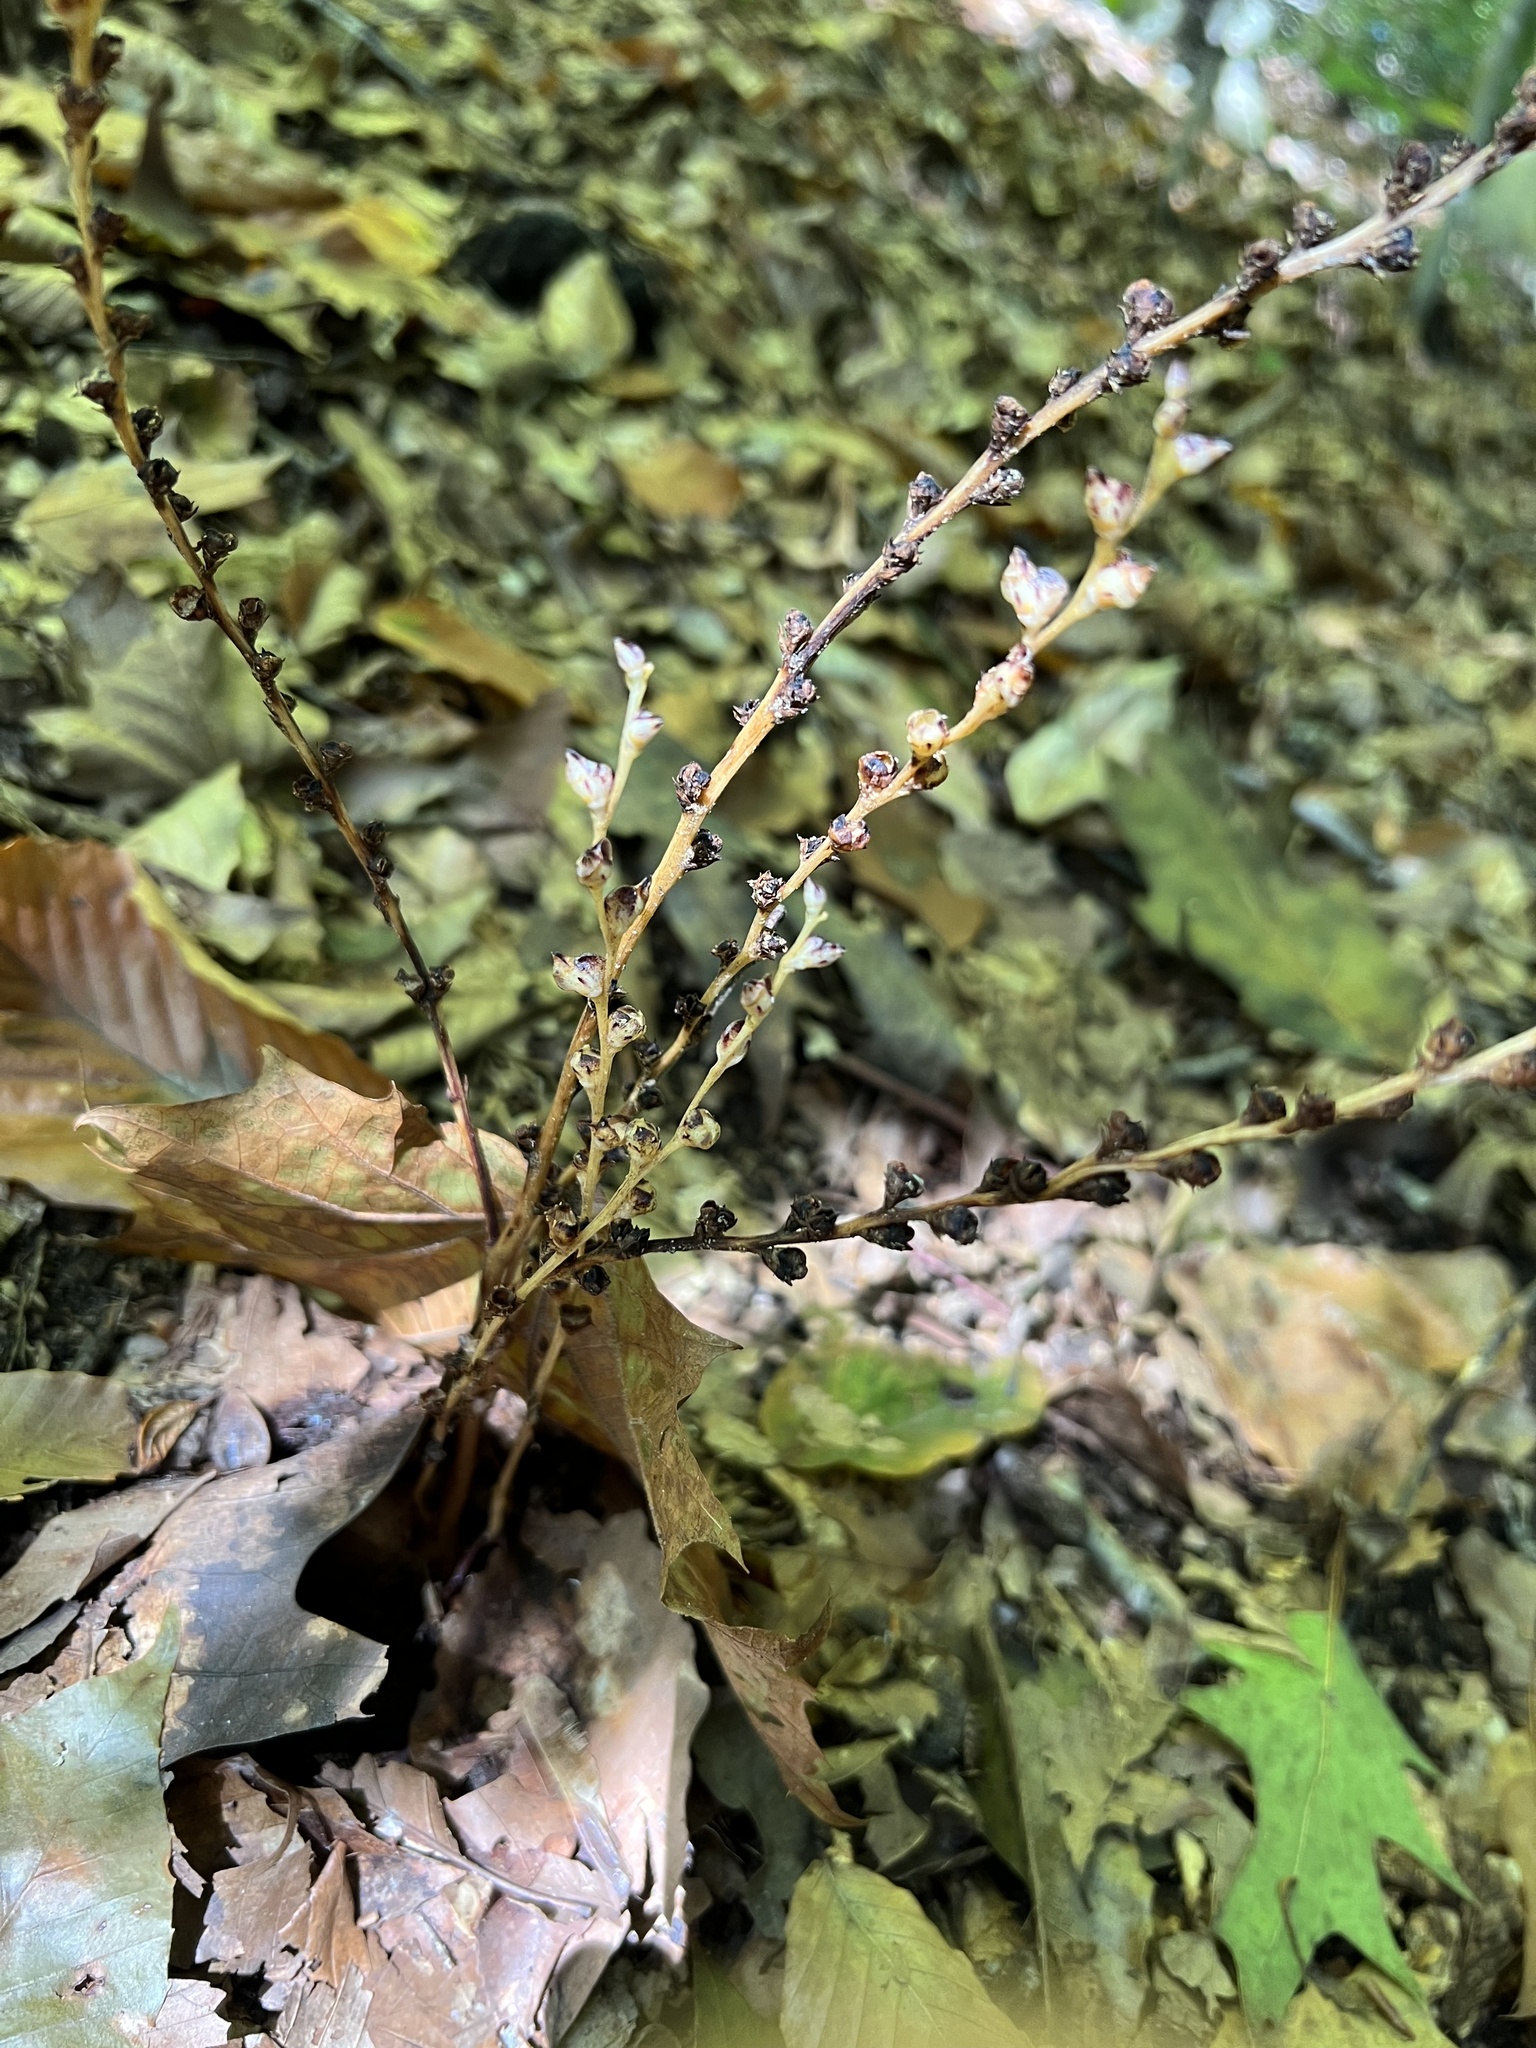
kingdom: Plantae
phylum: Tracheophyta
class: Magnoliopsida
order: Lamiales
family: Orobanchaceae
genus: Epifagus
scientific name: Epifagus virginiana
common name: Beechdrops
